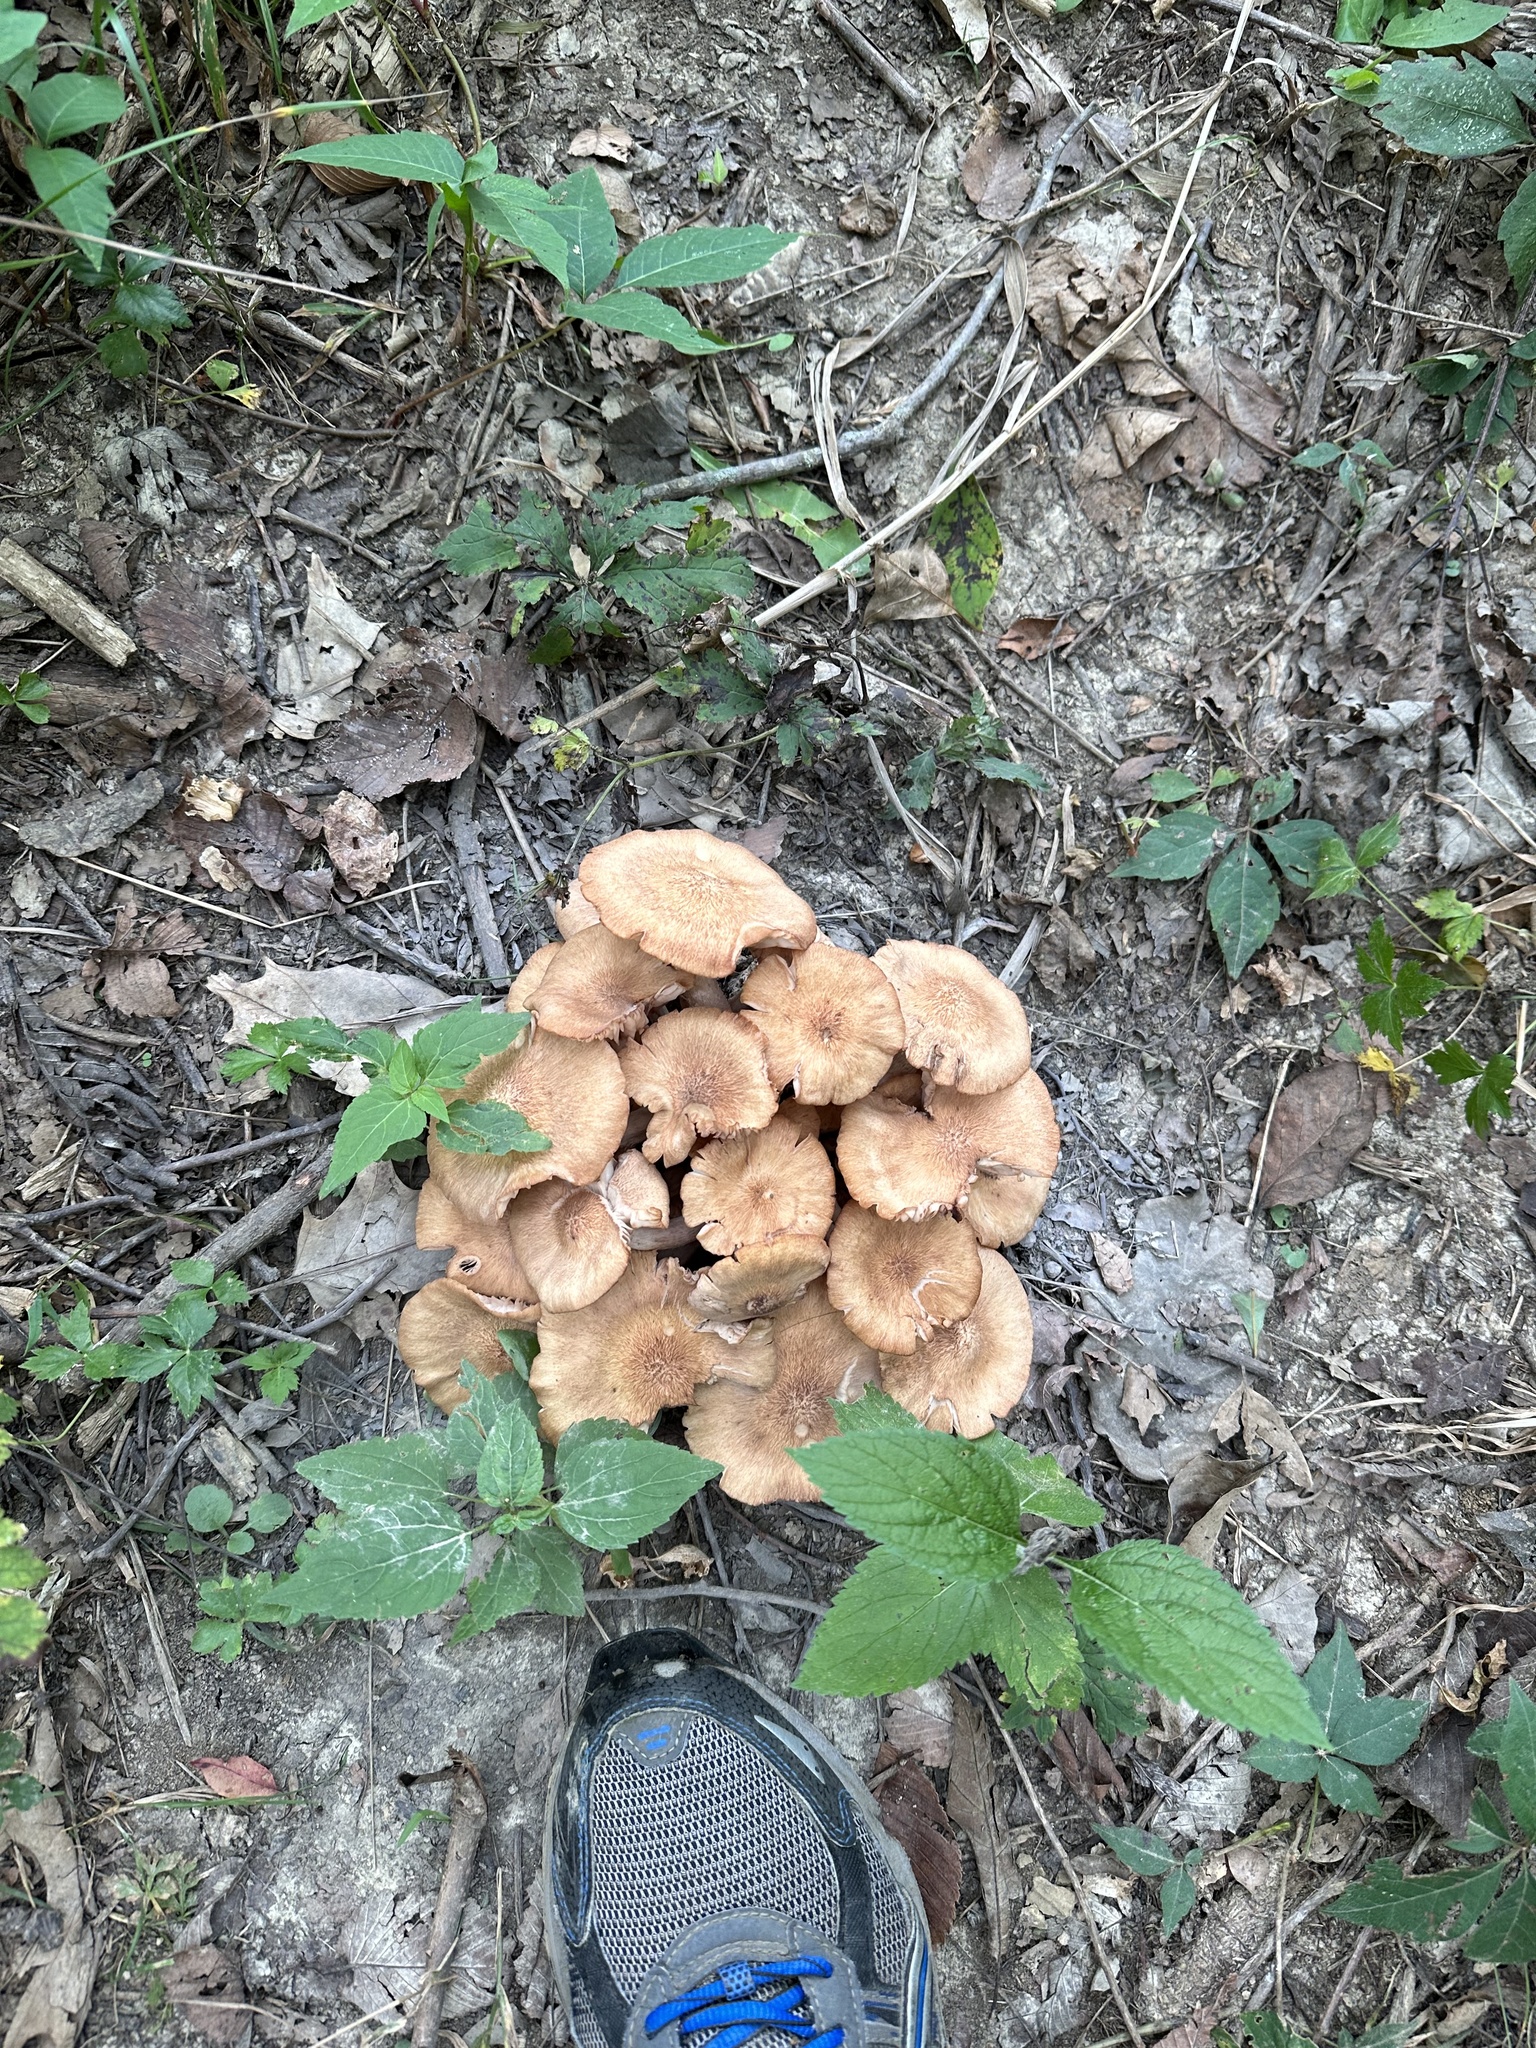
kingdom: Fungi
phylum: Basidiomycota
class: Agaricomycetes
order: Agaricales
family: Physalacriaceae
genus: Desarmillaria
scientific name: Desarmillaria caespitosa
